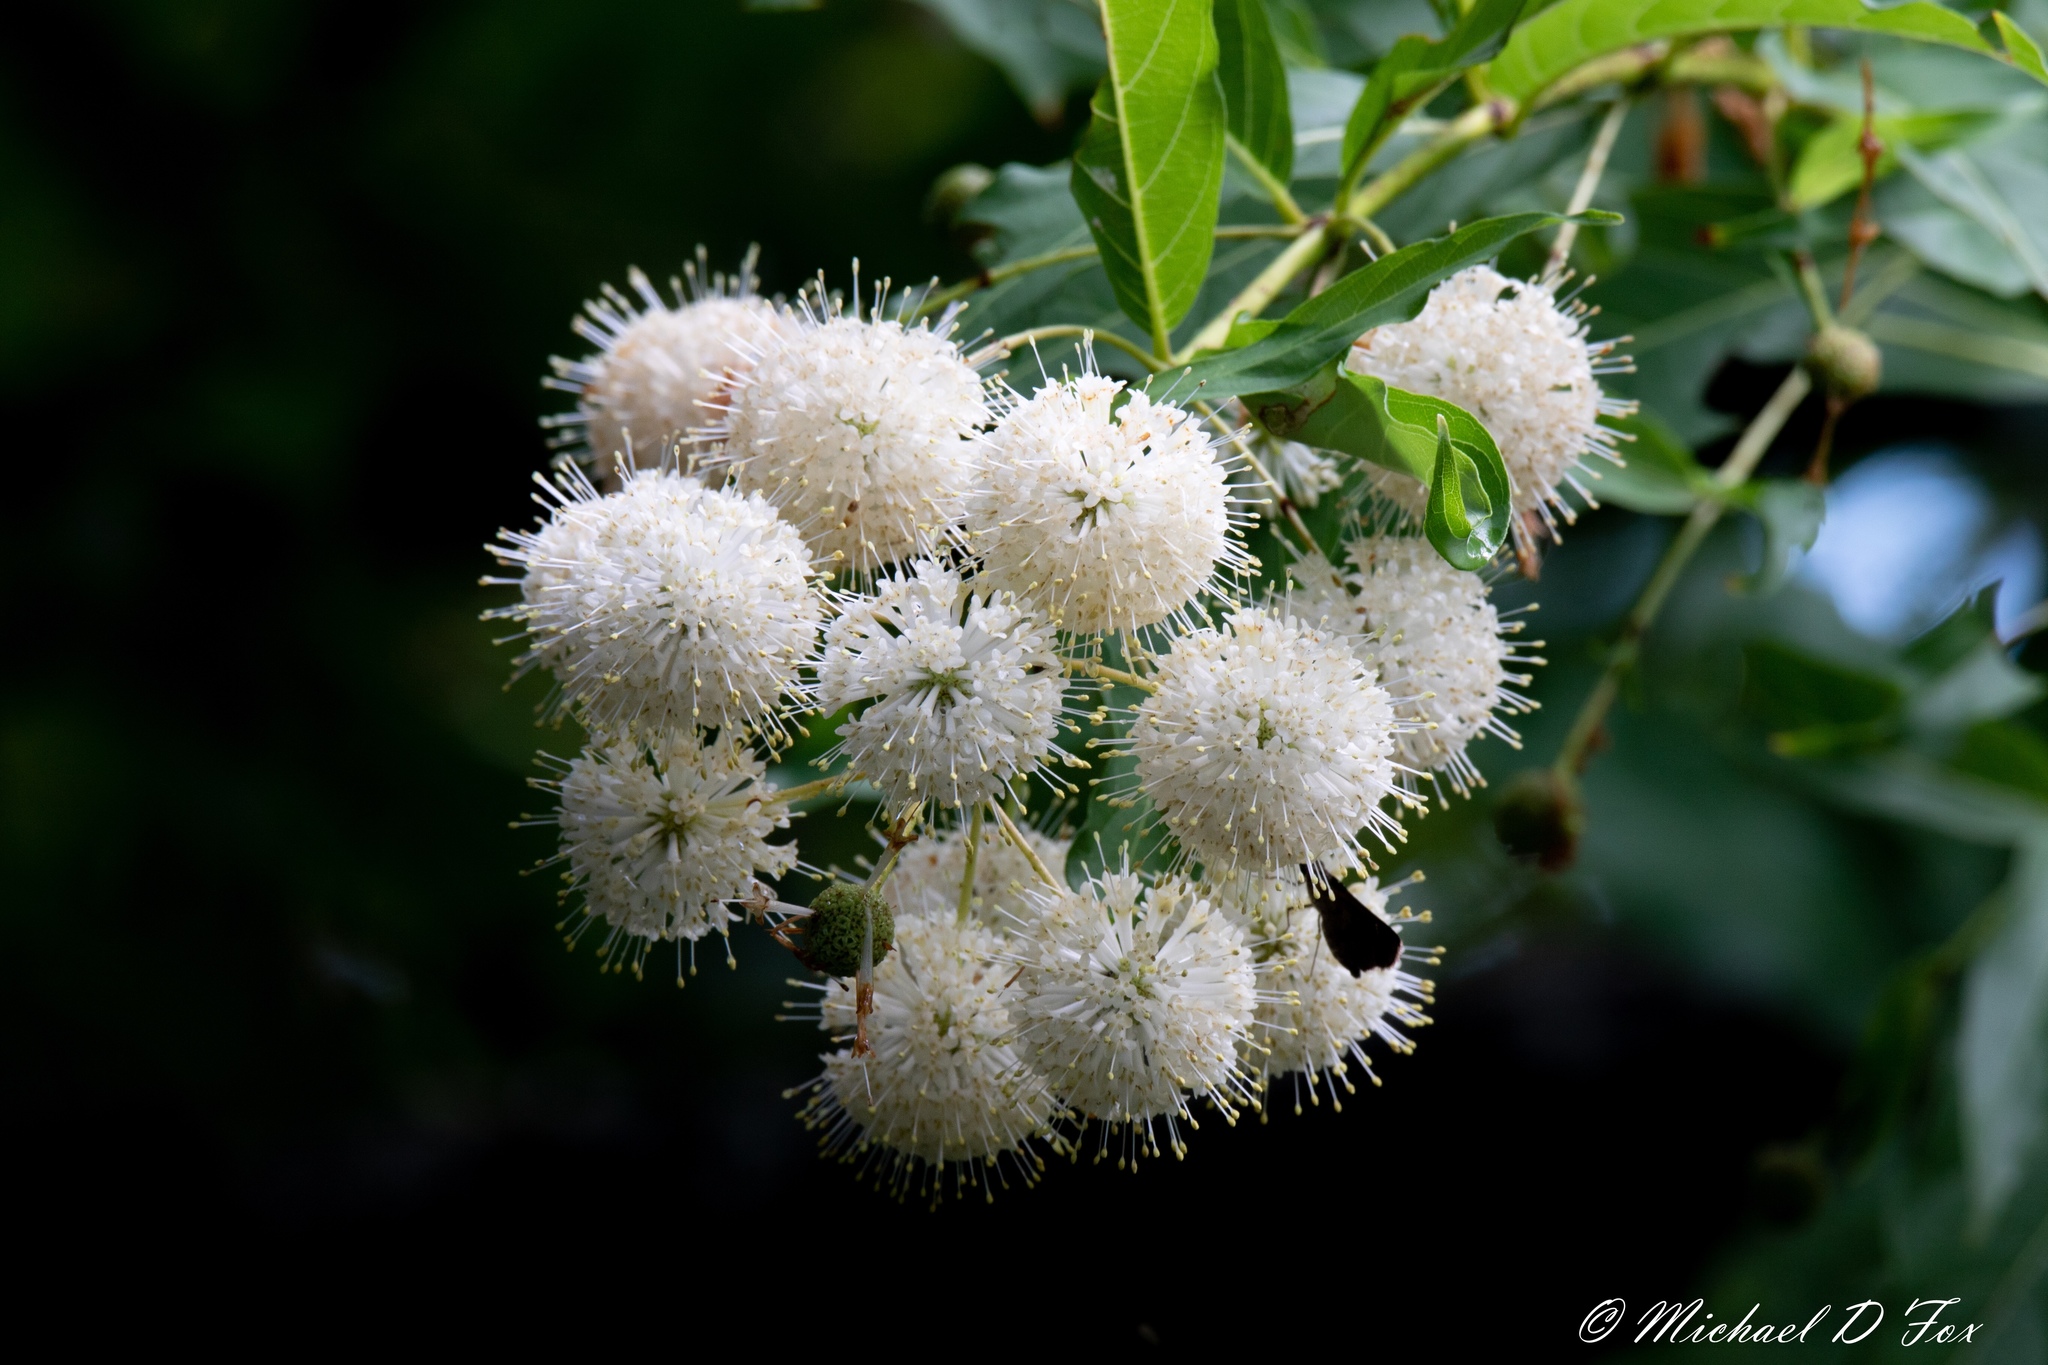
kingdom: Plantae
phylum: Tracheophyta
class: Magnoliopsida
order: Gentianales
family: Rubiaceae
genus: Cephalanthus
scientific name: Cephalanthus occidentalis
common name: Button-willow
